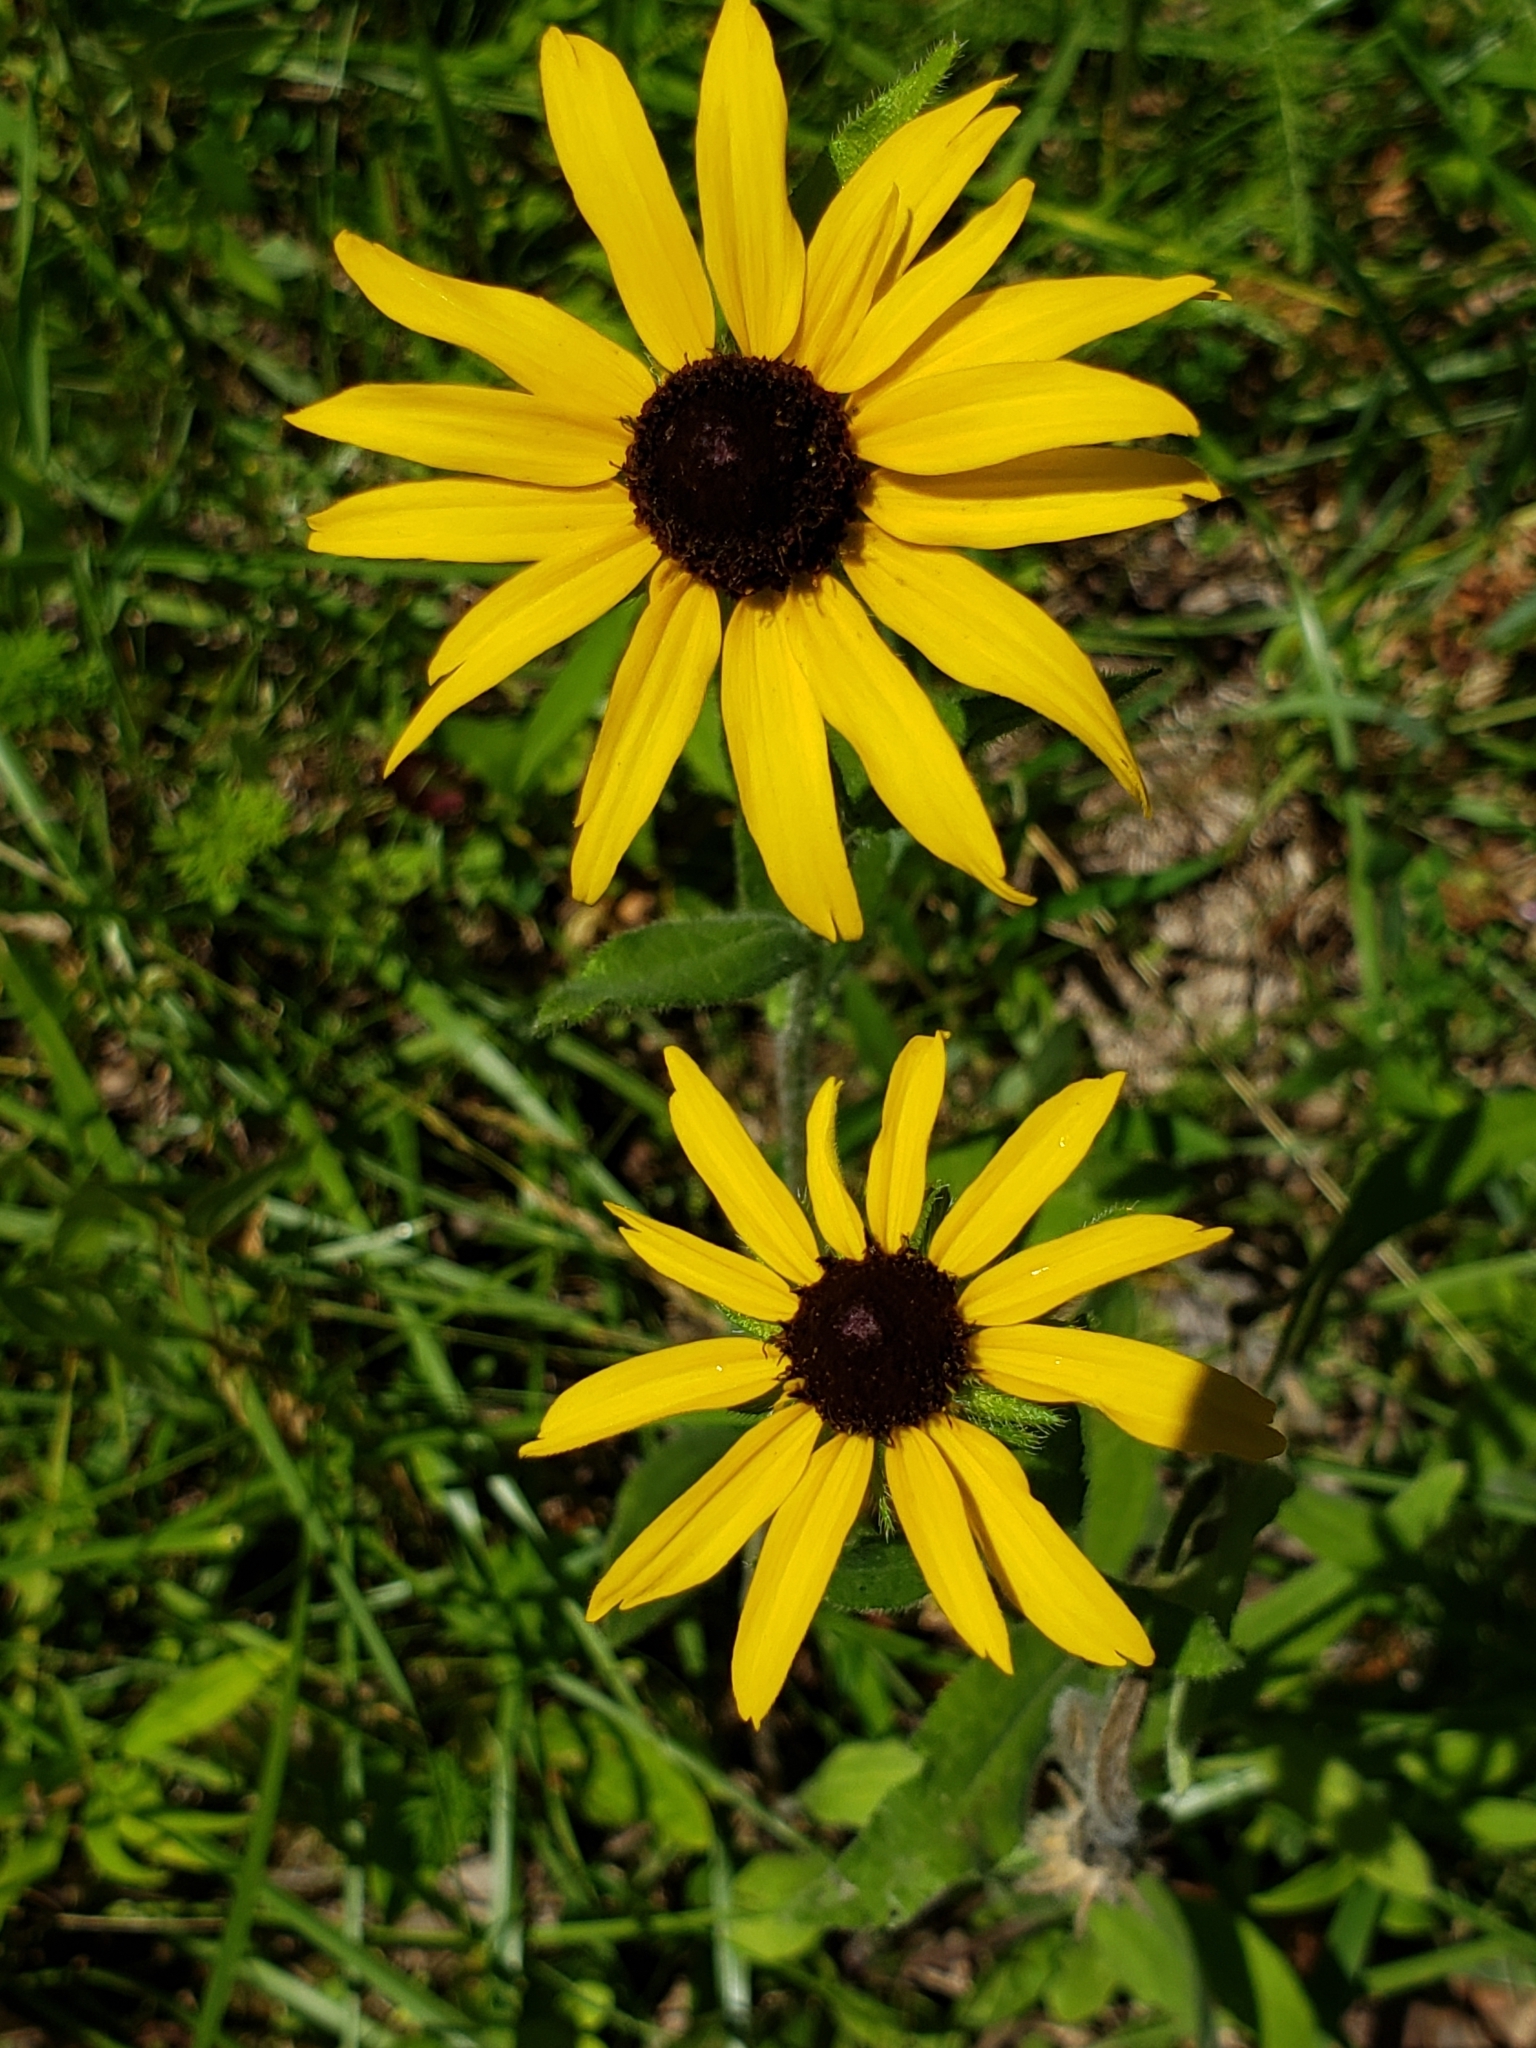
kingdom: Plantae
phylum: Tracheophyta
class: Magnoliopsida
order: Asterales
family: Asteraceae
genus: Rudbeckia
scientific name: Rudbeckia hirta
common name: Black-eyed-susan
